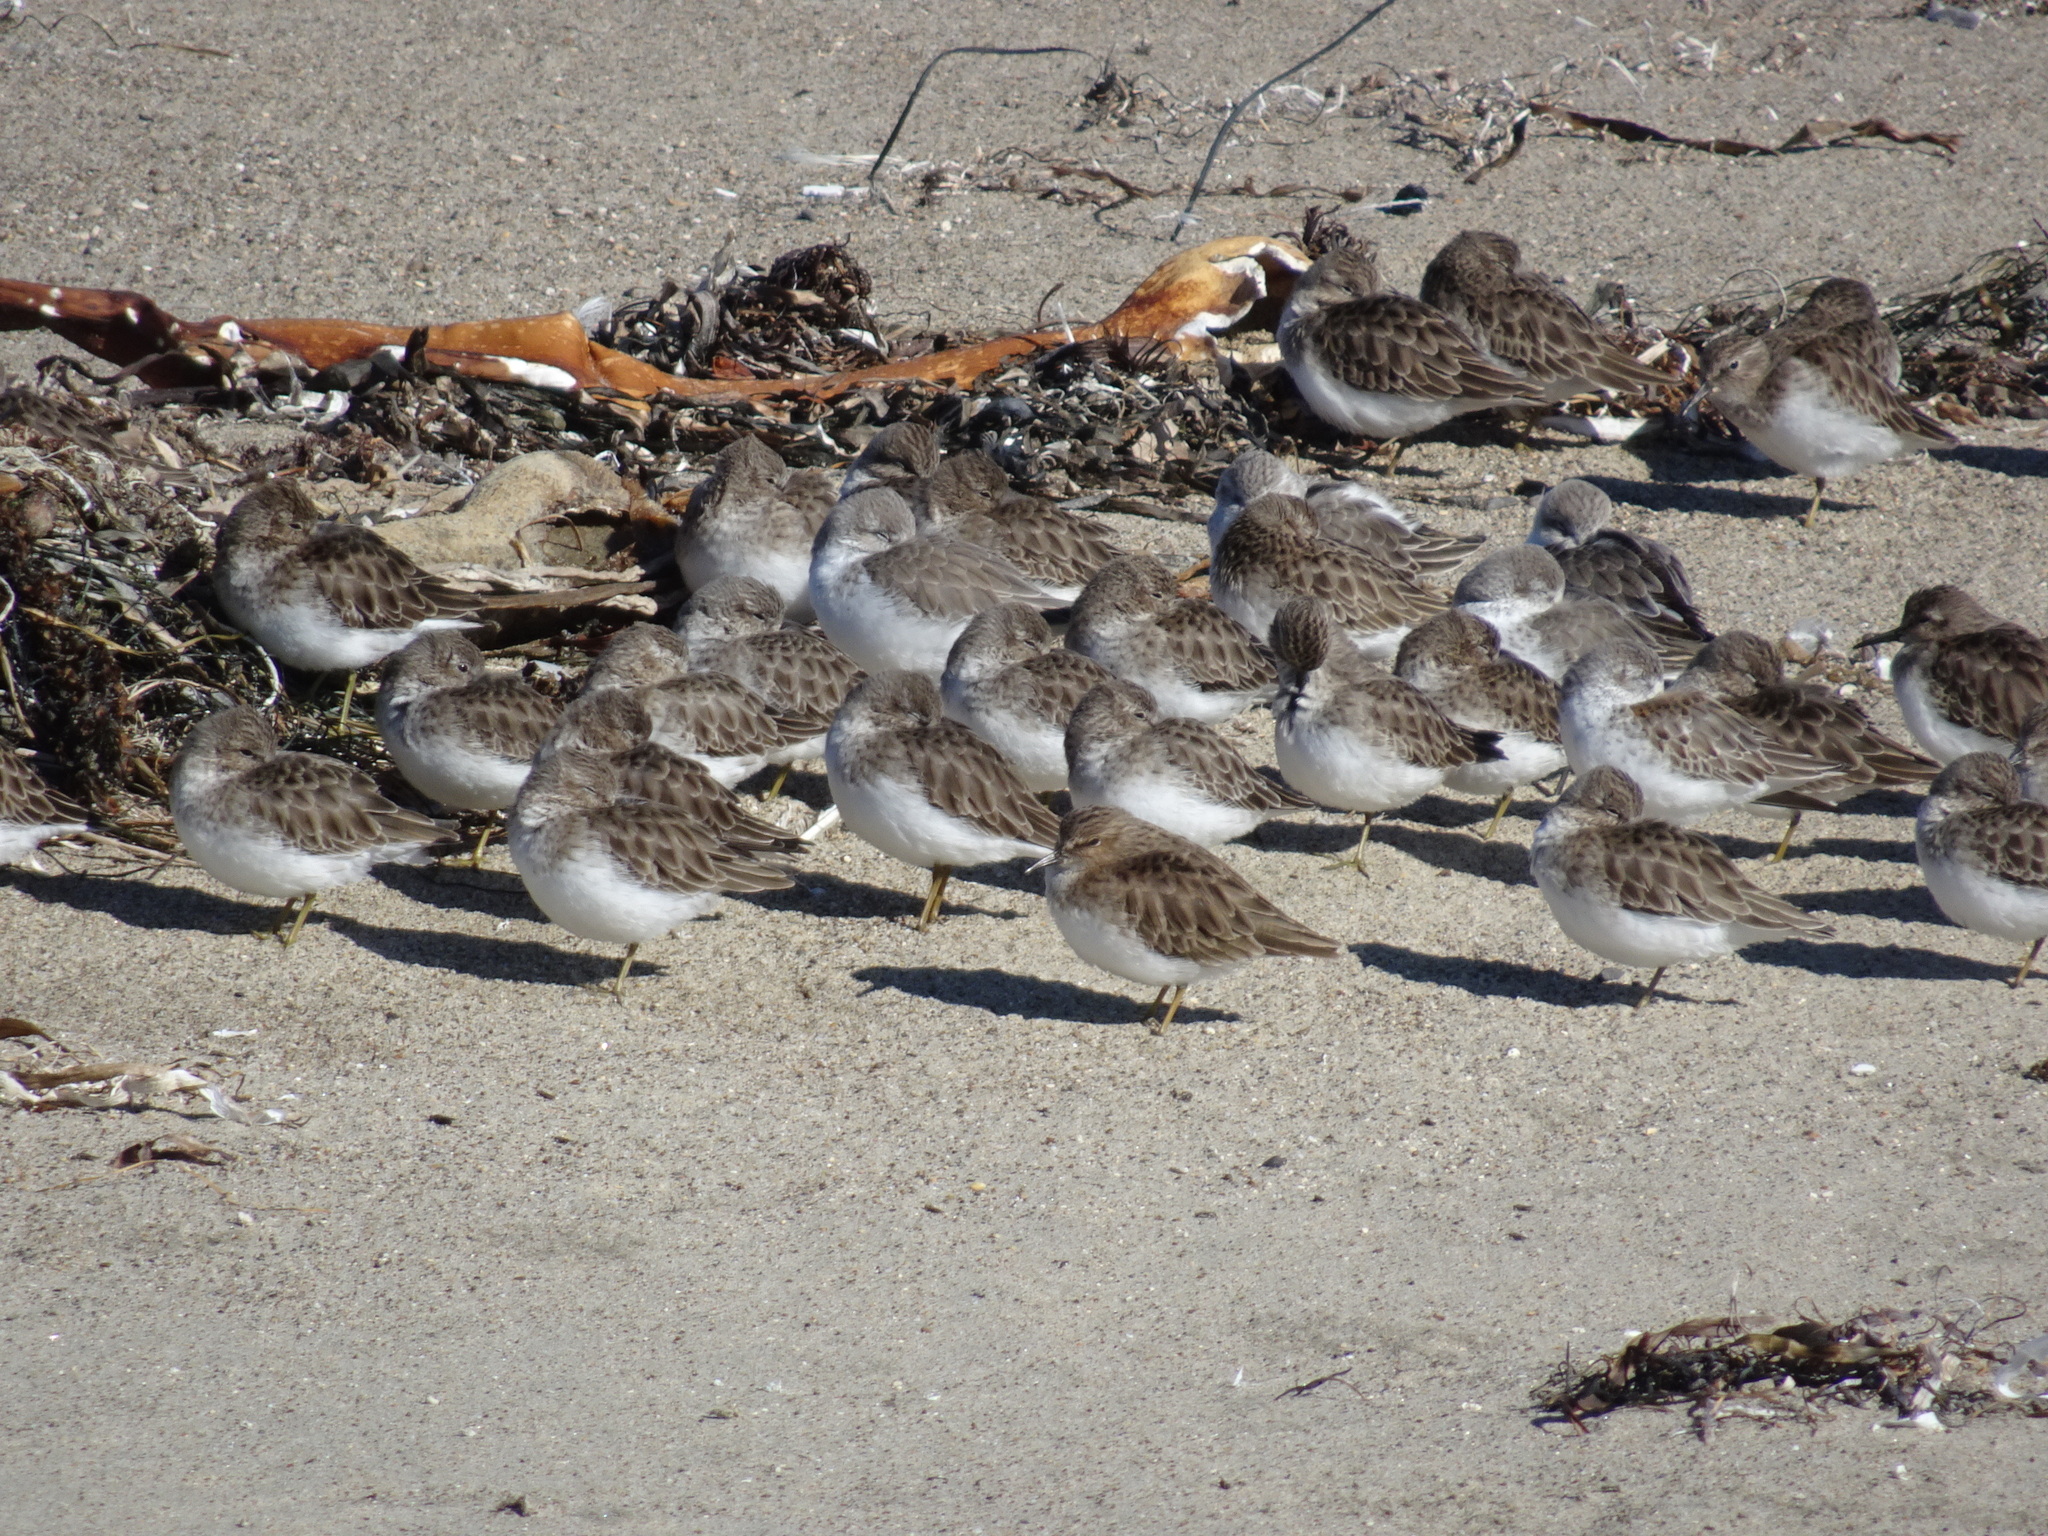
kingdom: Animalia
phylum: Chordata
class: Aves
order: Charadriiformes
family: Scolopacidae
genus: Calidris
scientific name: Calidris minutilla
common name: Least sandpiper
